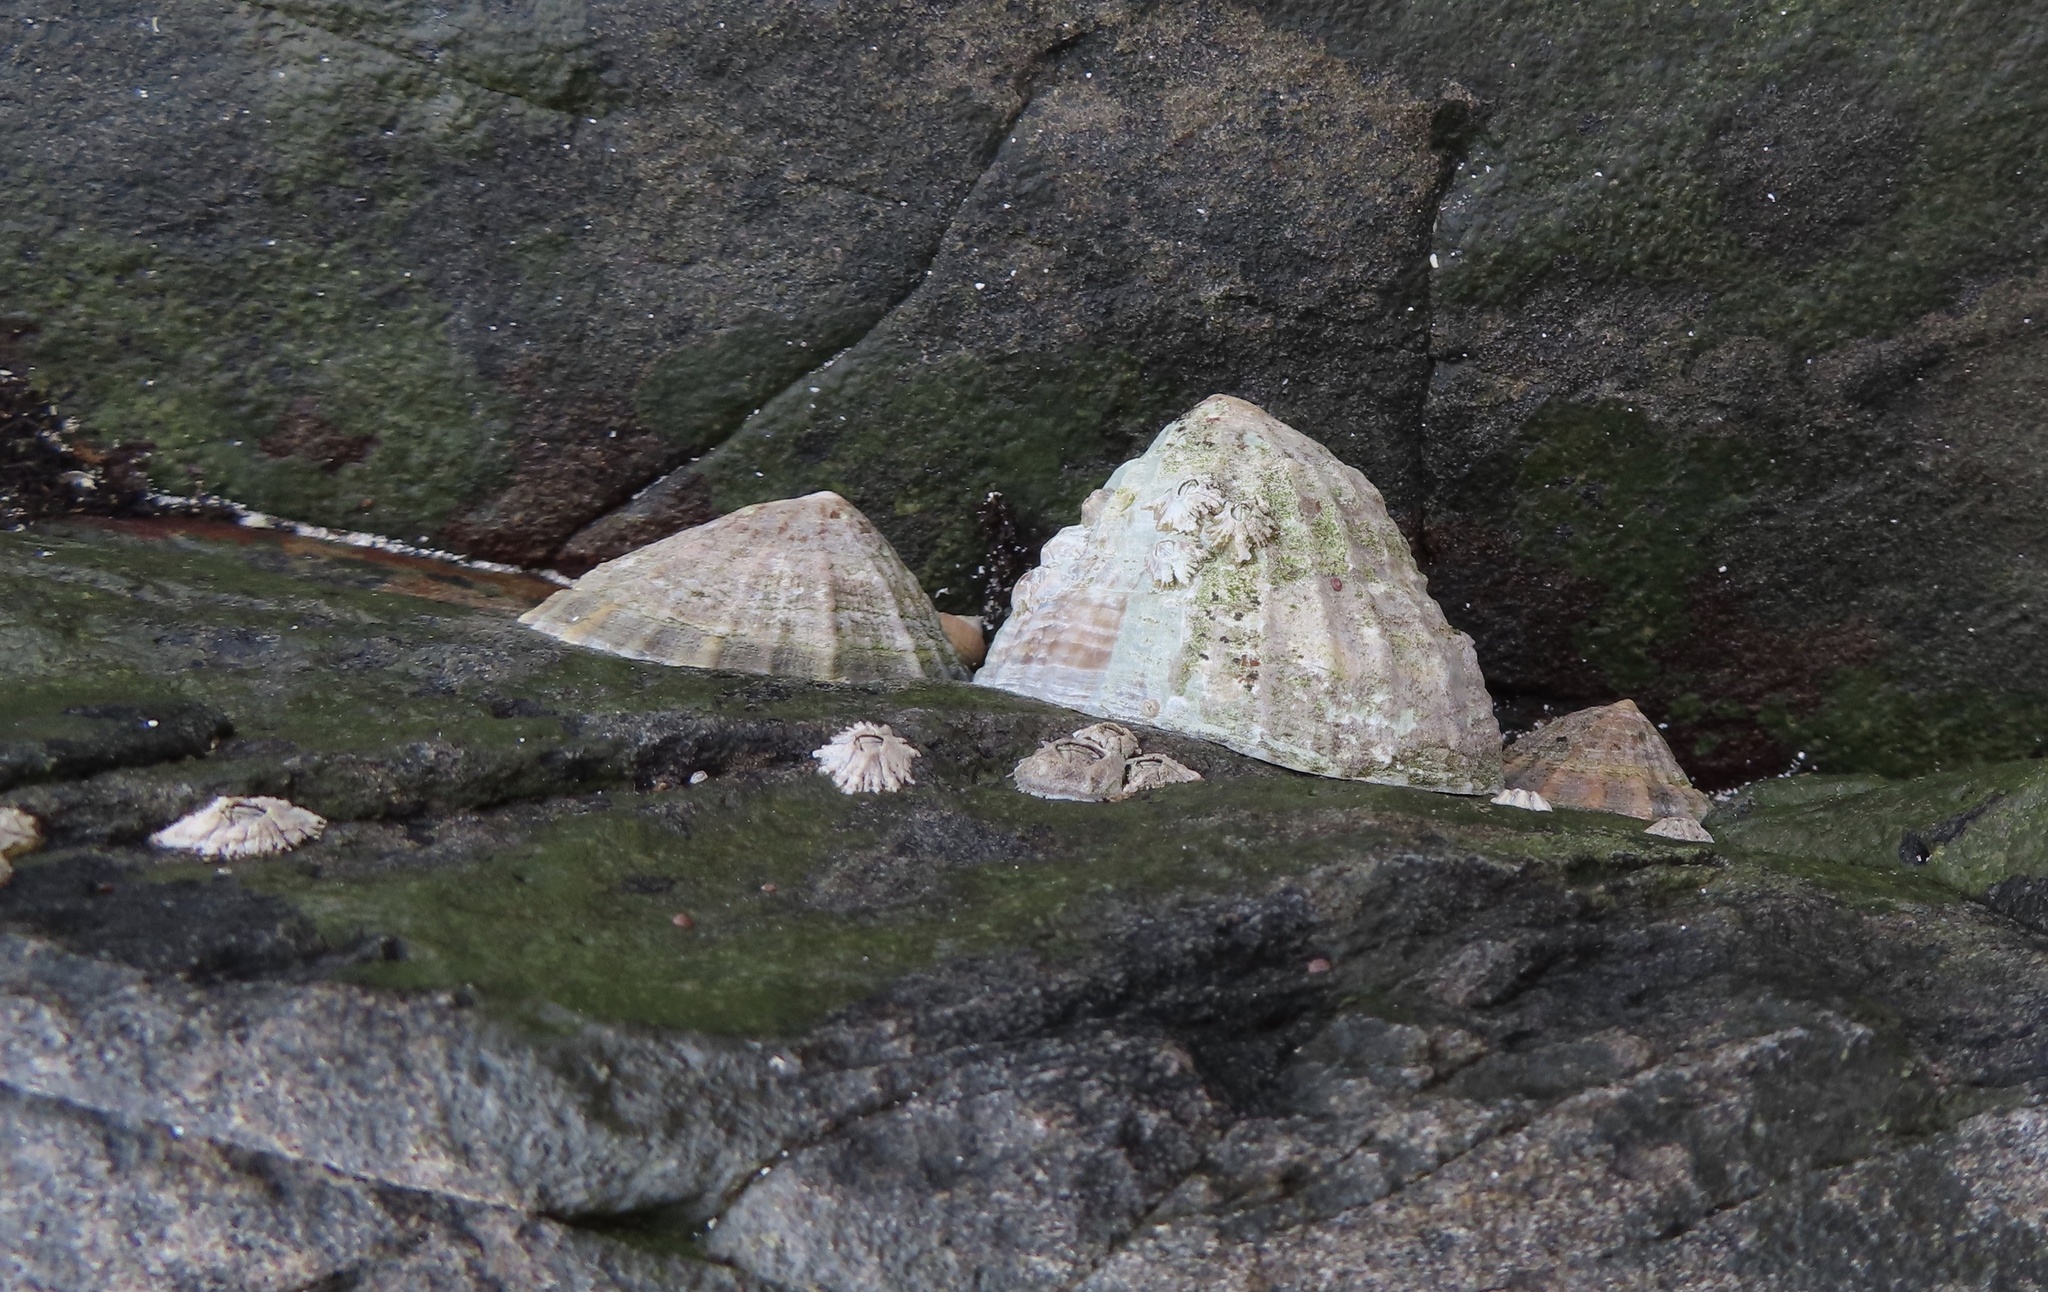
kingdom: Animalia
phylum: Mollusca
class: Gastropoda
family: Patellidae
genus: Patella
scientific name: Patella vulgata
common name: Common limpet
